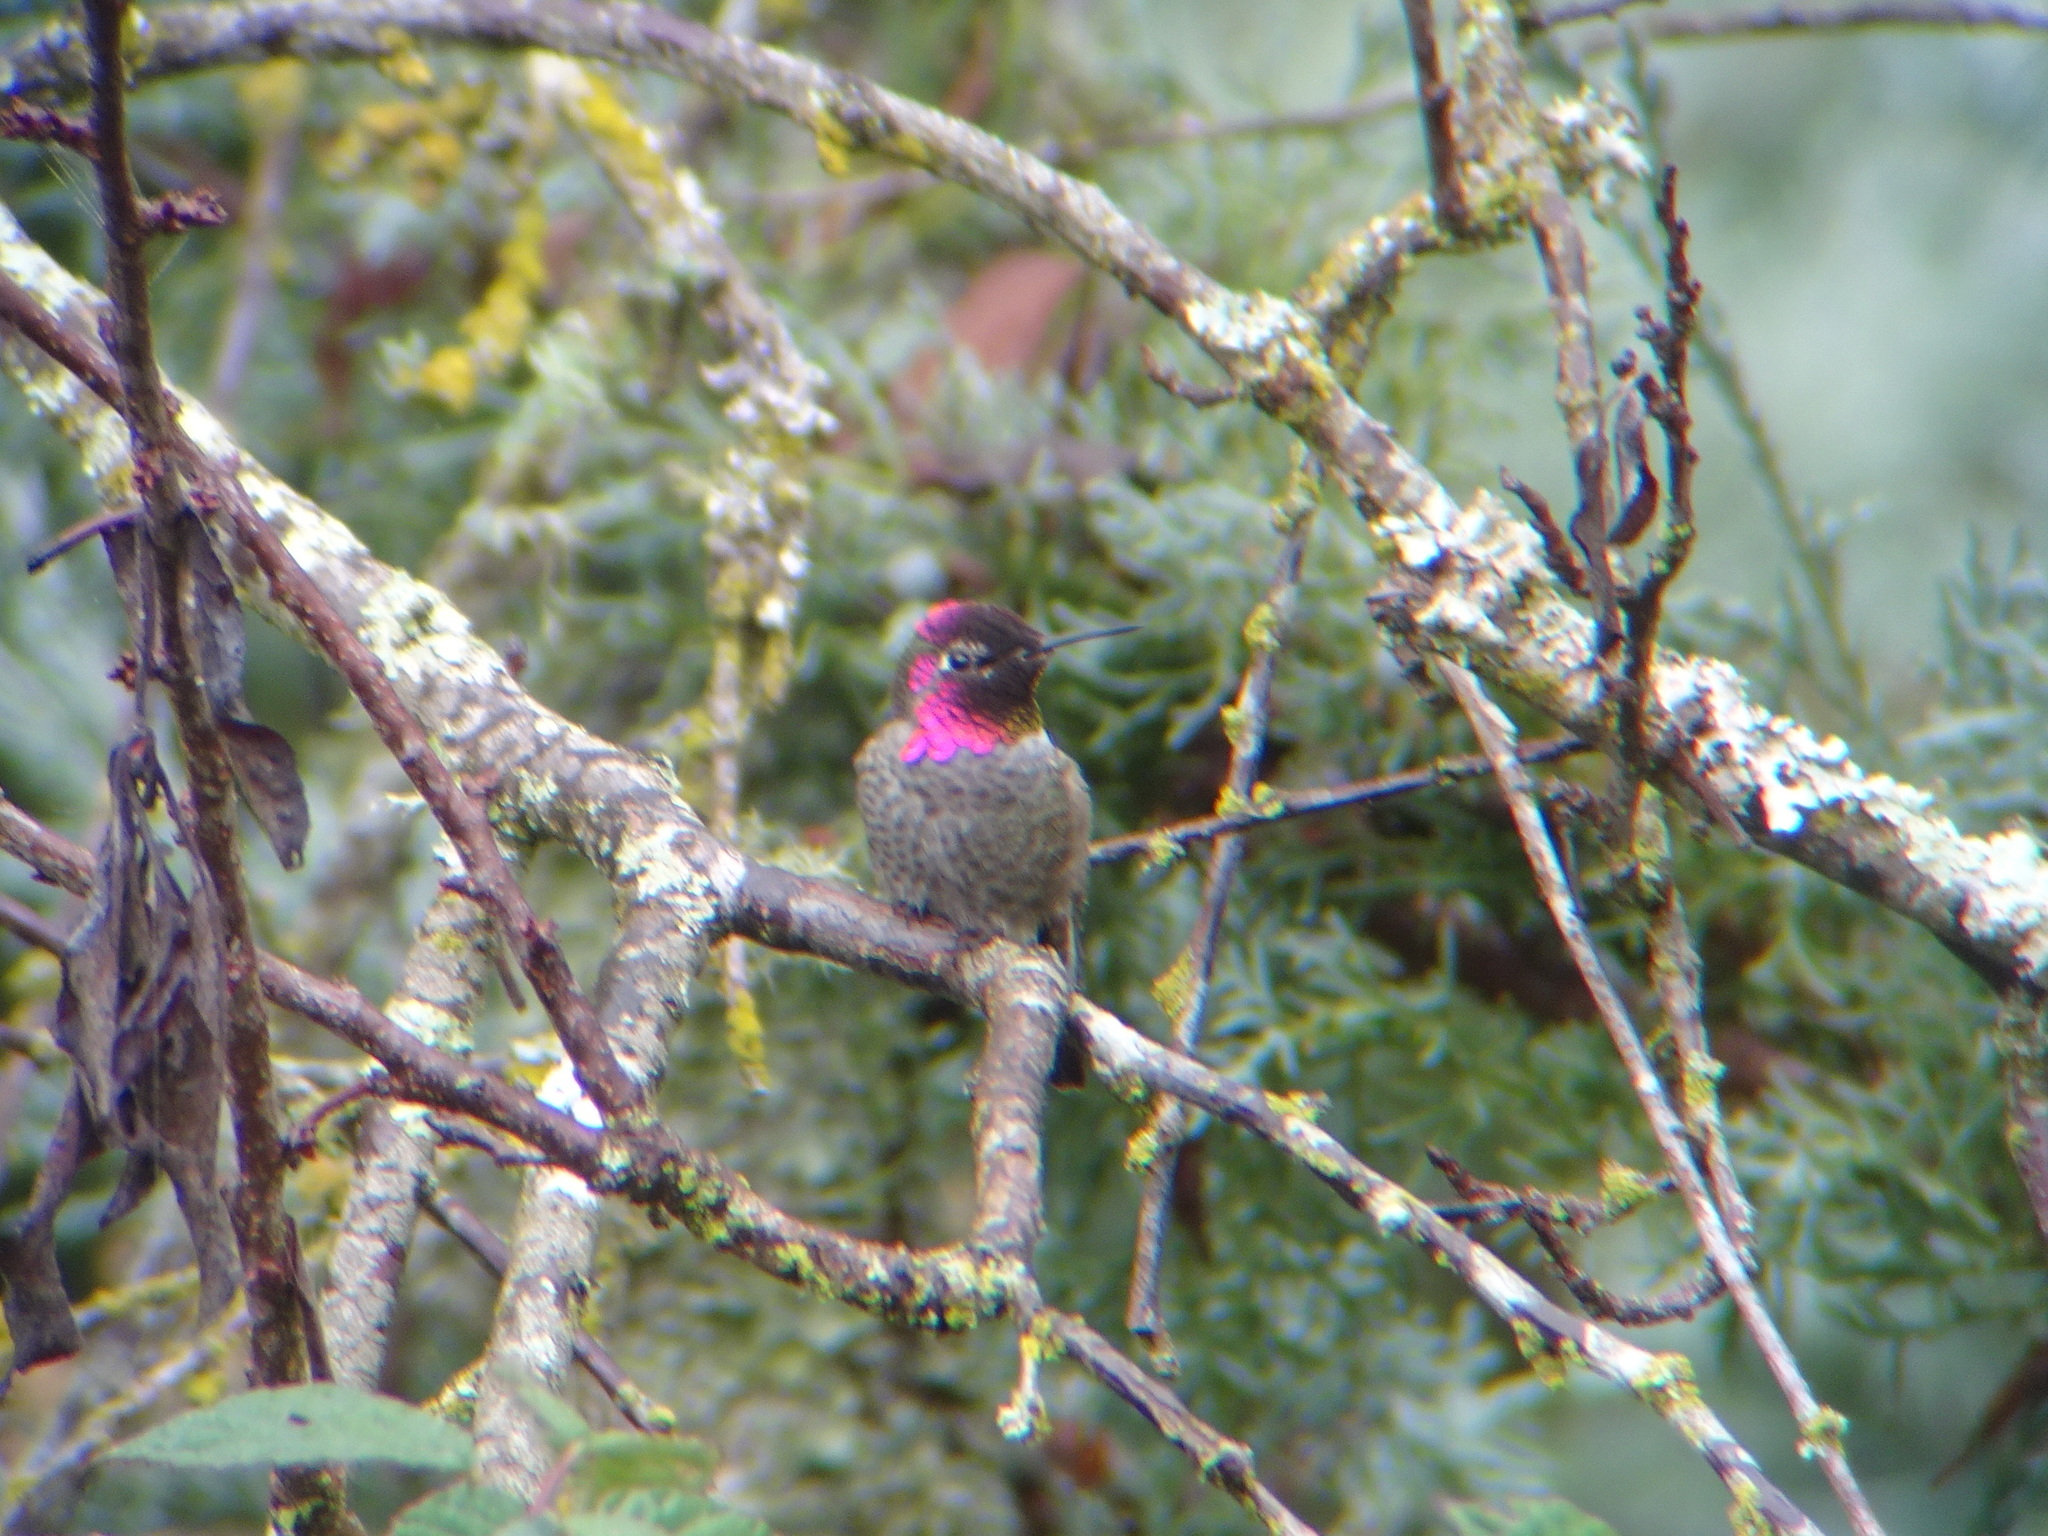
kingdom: Animalia
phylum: Chordata
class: Aves
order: Apodiformes
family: Trochilidae
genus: Calypte
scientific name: Calypte anna
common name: Anna's hummingbird
